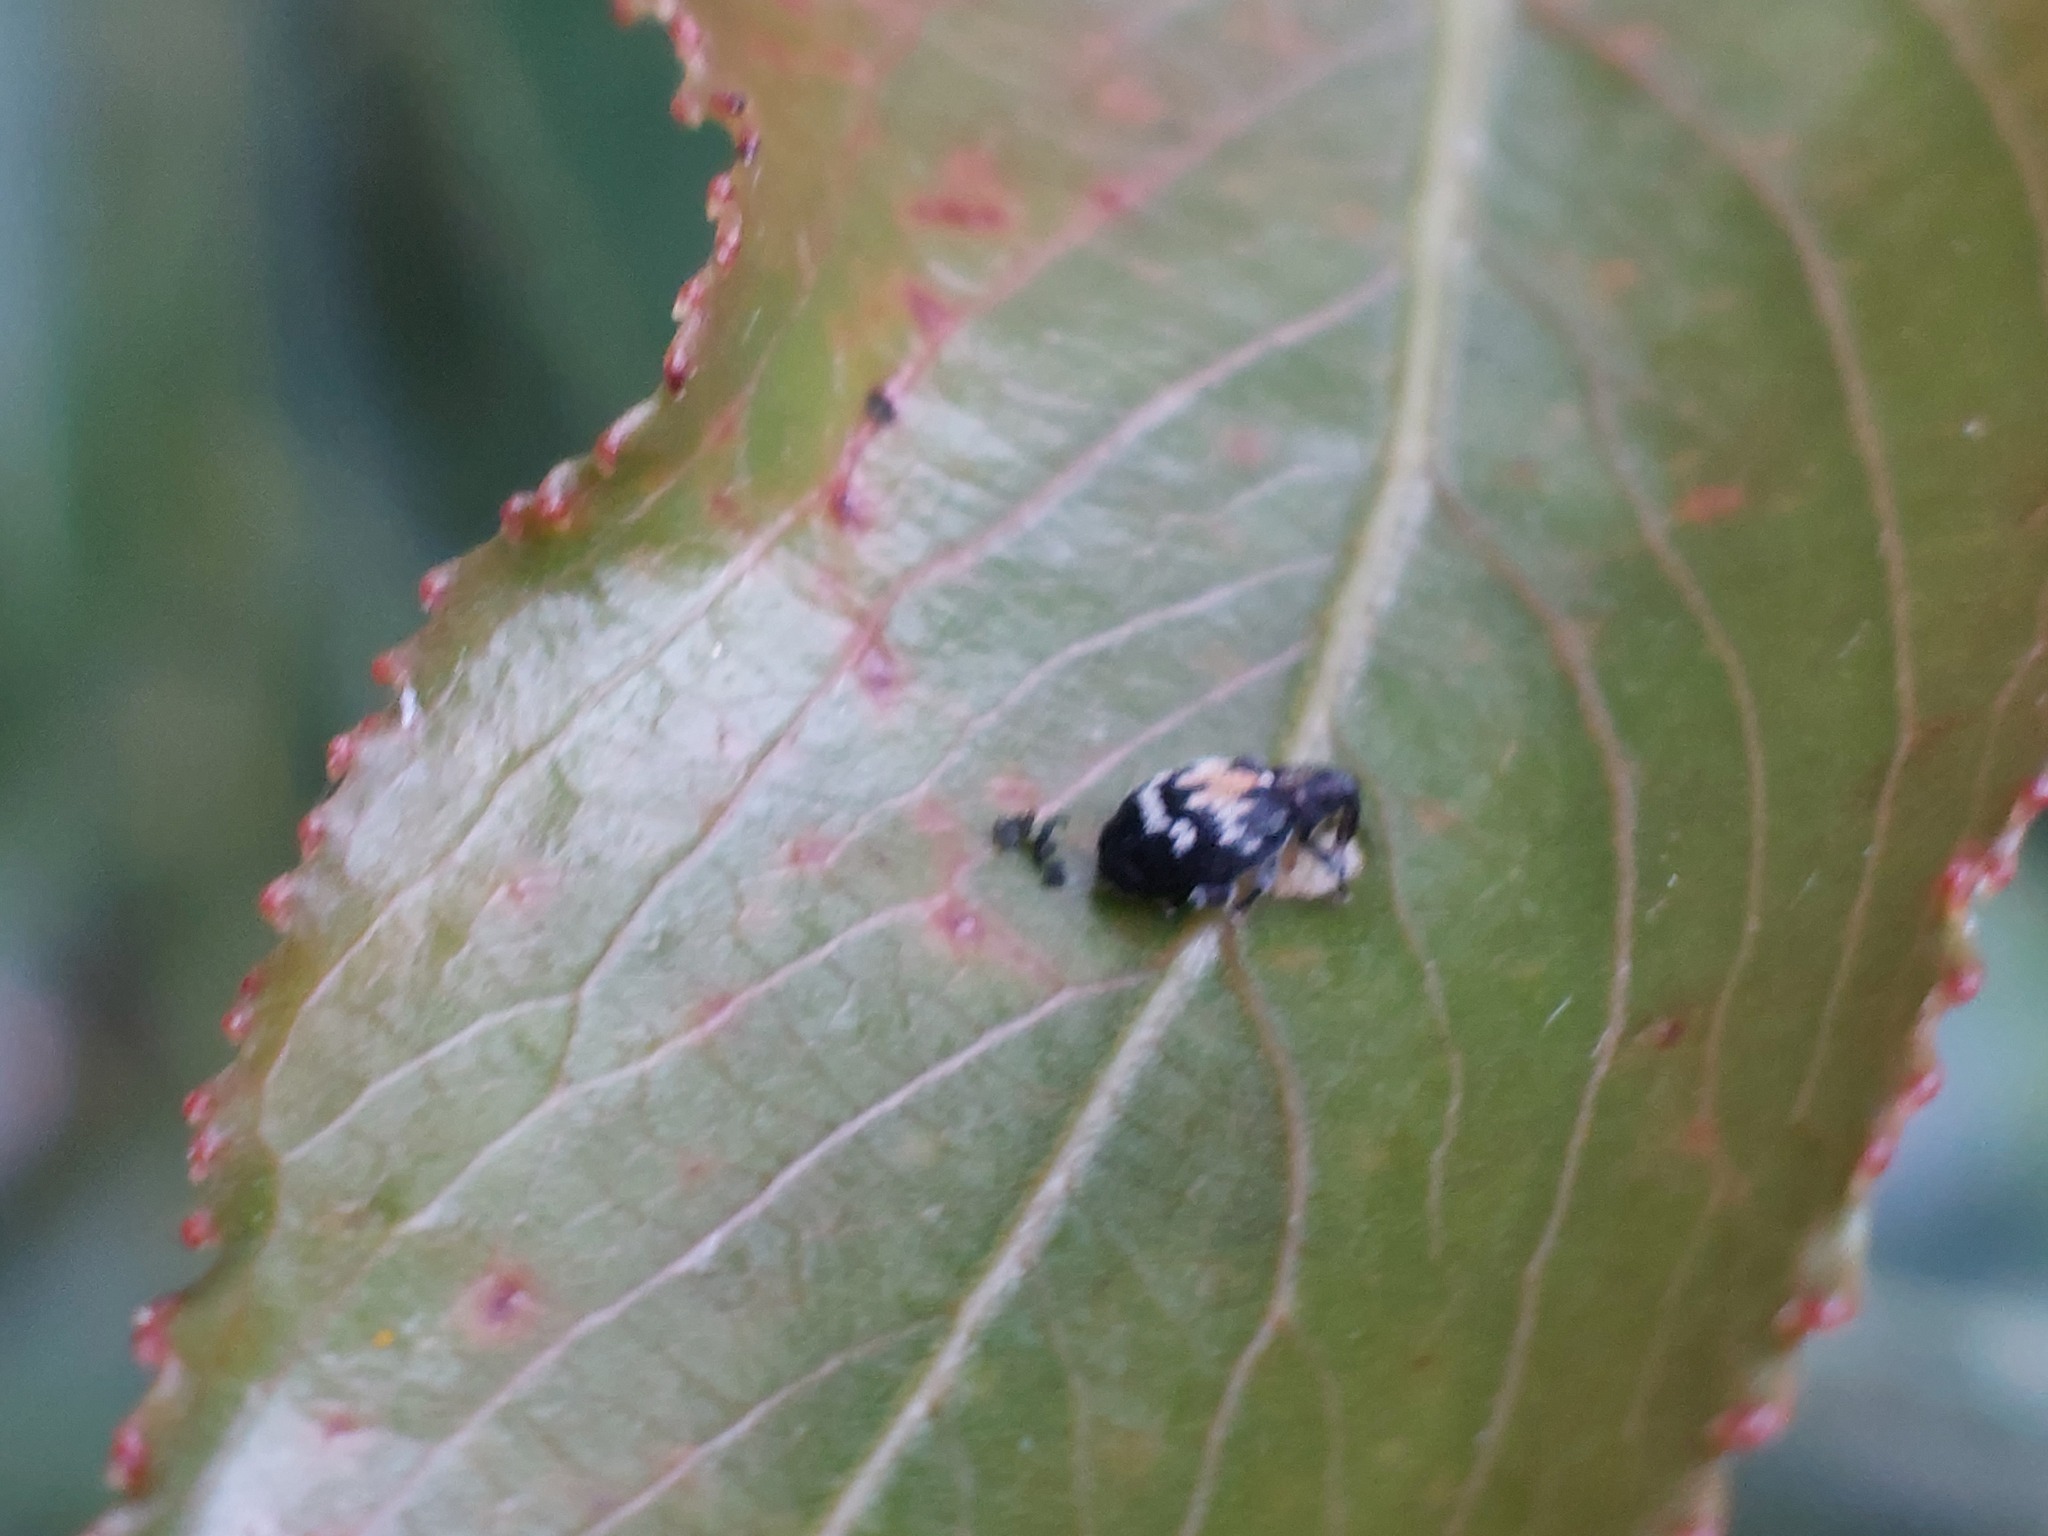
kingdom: Animalia
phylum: Arthropoda
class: Insecta
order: Coleoptera
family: Curculionidae
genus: Tachyerges
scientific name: Tachyerges salicis
